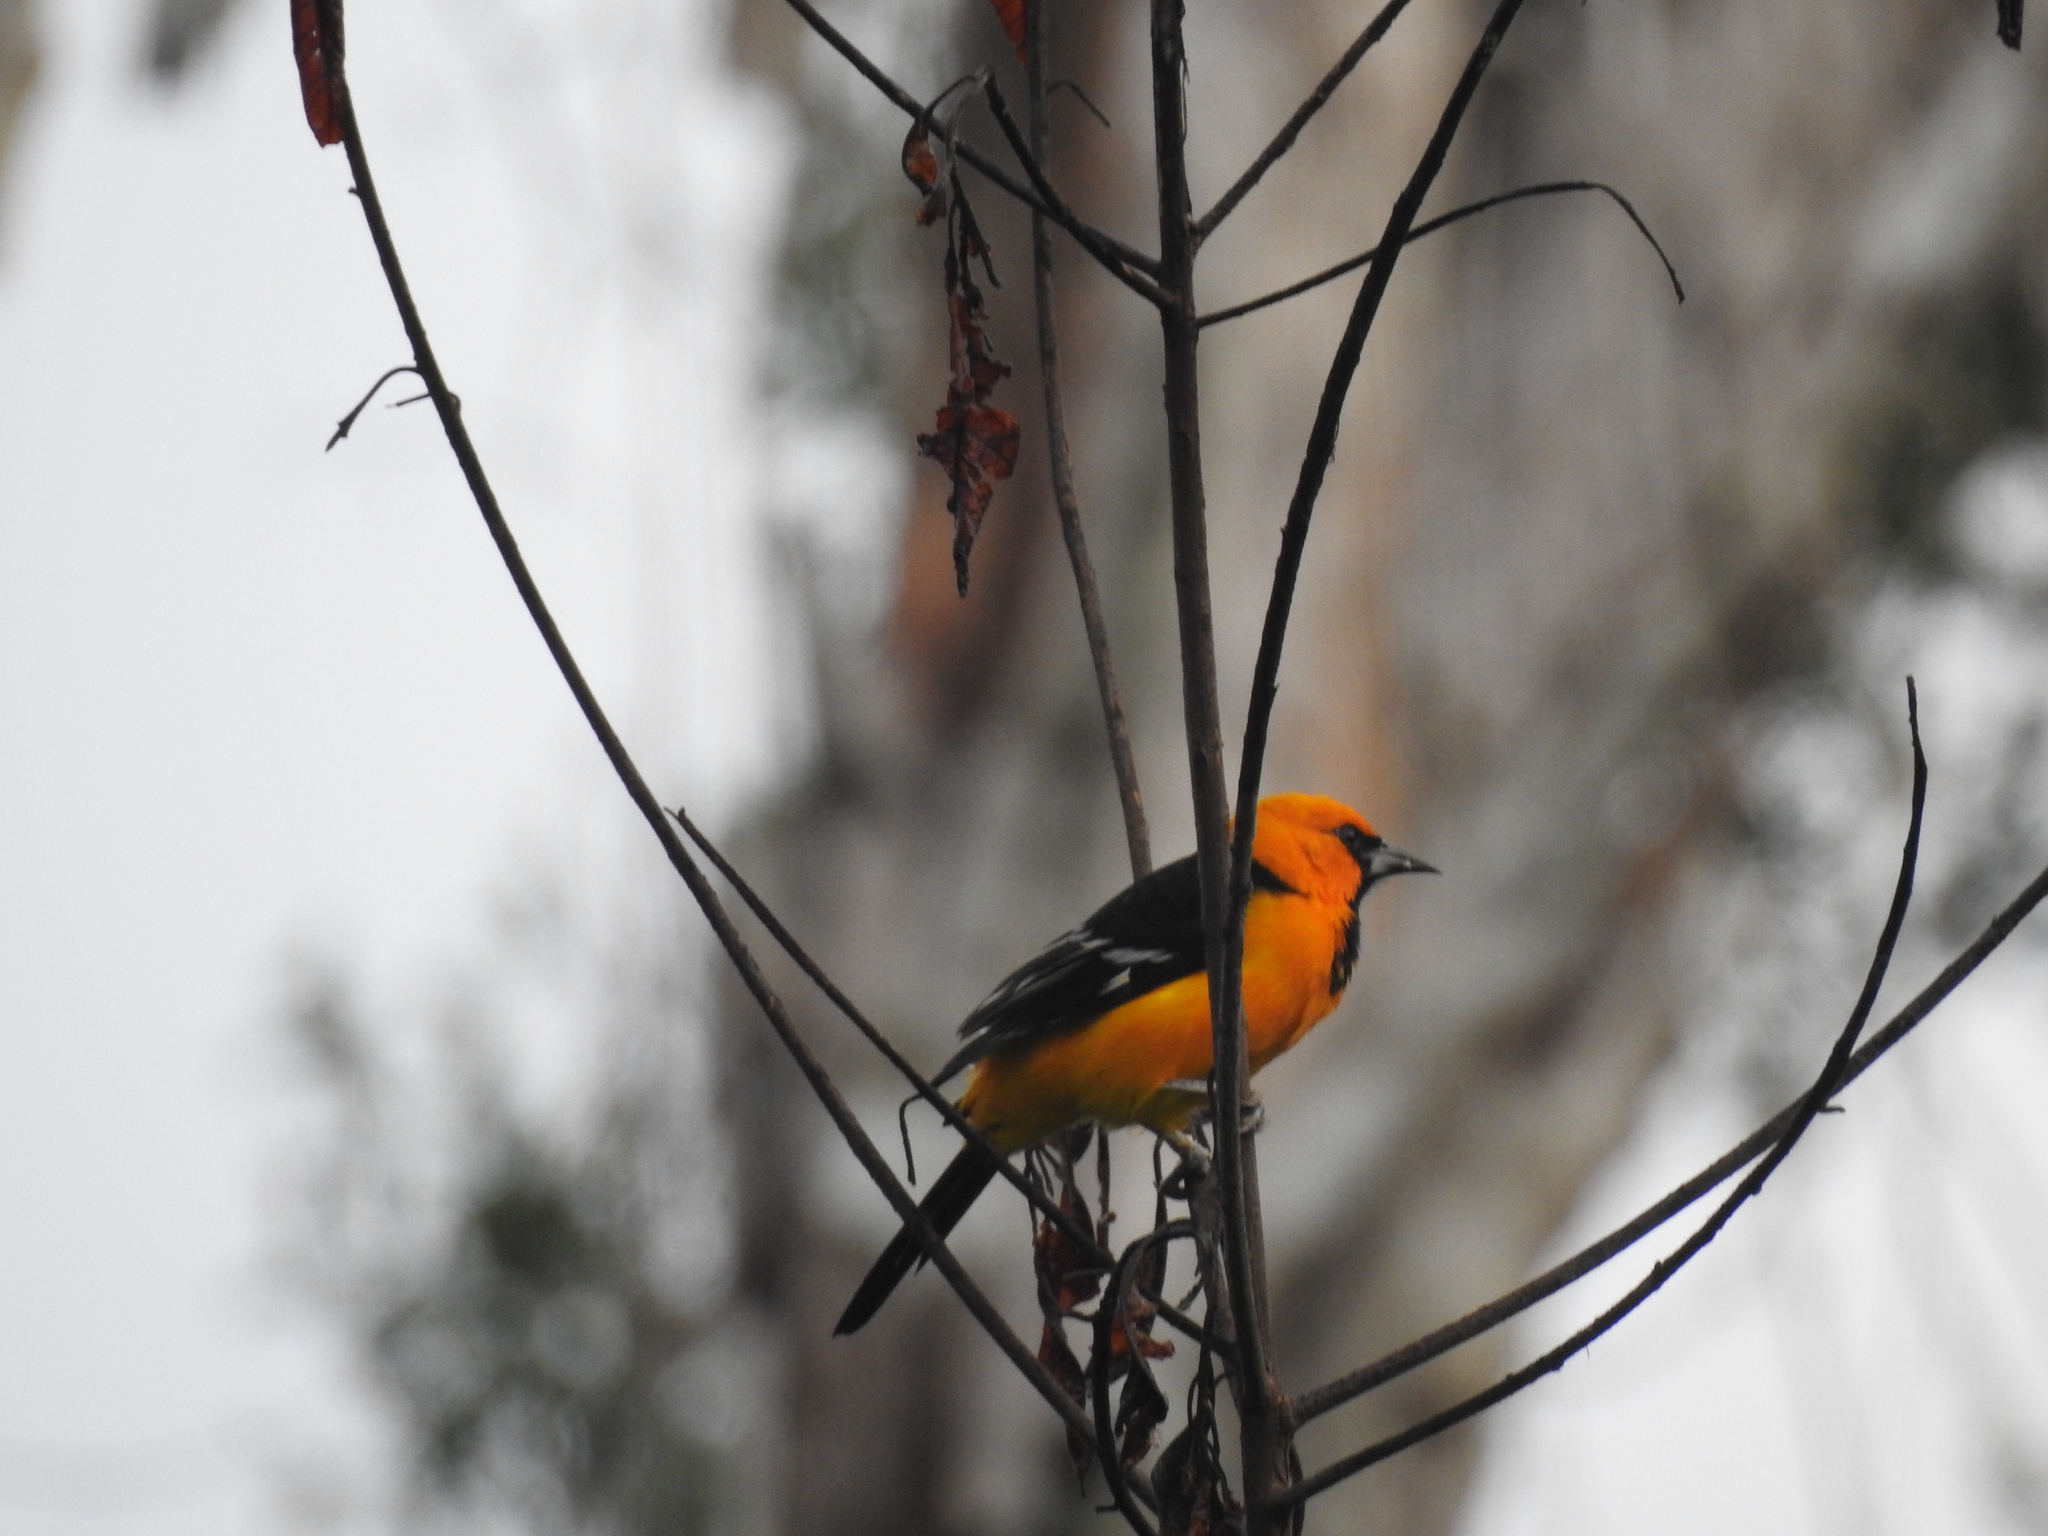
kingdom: Animalia
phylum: Chordata
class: Aves
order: Passeriformes
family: Icteridae
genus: Icterus
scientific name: Icterus gularis
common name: Altamira oriole
